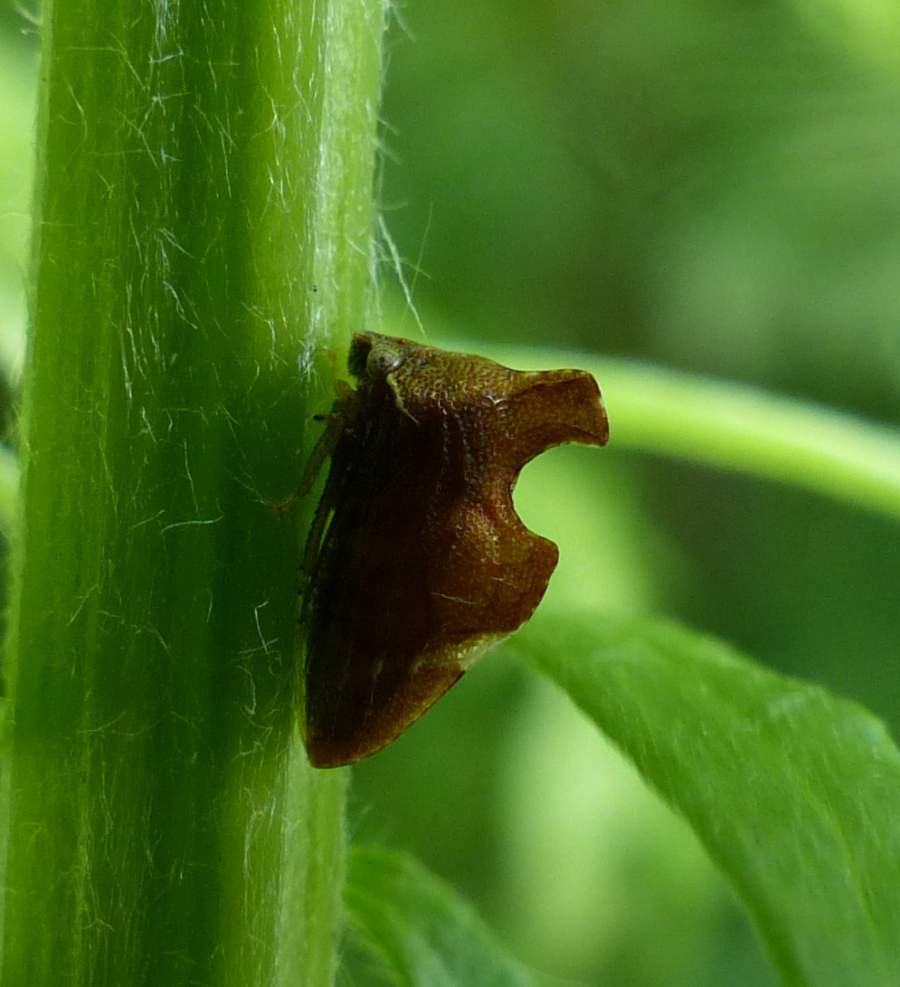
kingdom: Animalia
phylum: Arthropoda
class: Insecta
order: Hemiptera
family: Membracidae
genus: Entylia
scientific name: Entylia carinata
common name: Keeled treehopper
